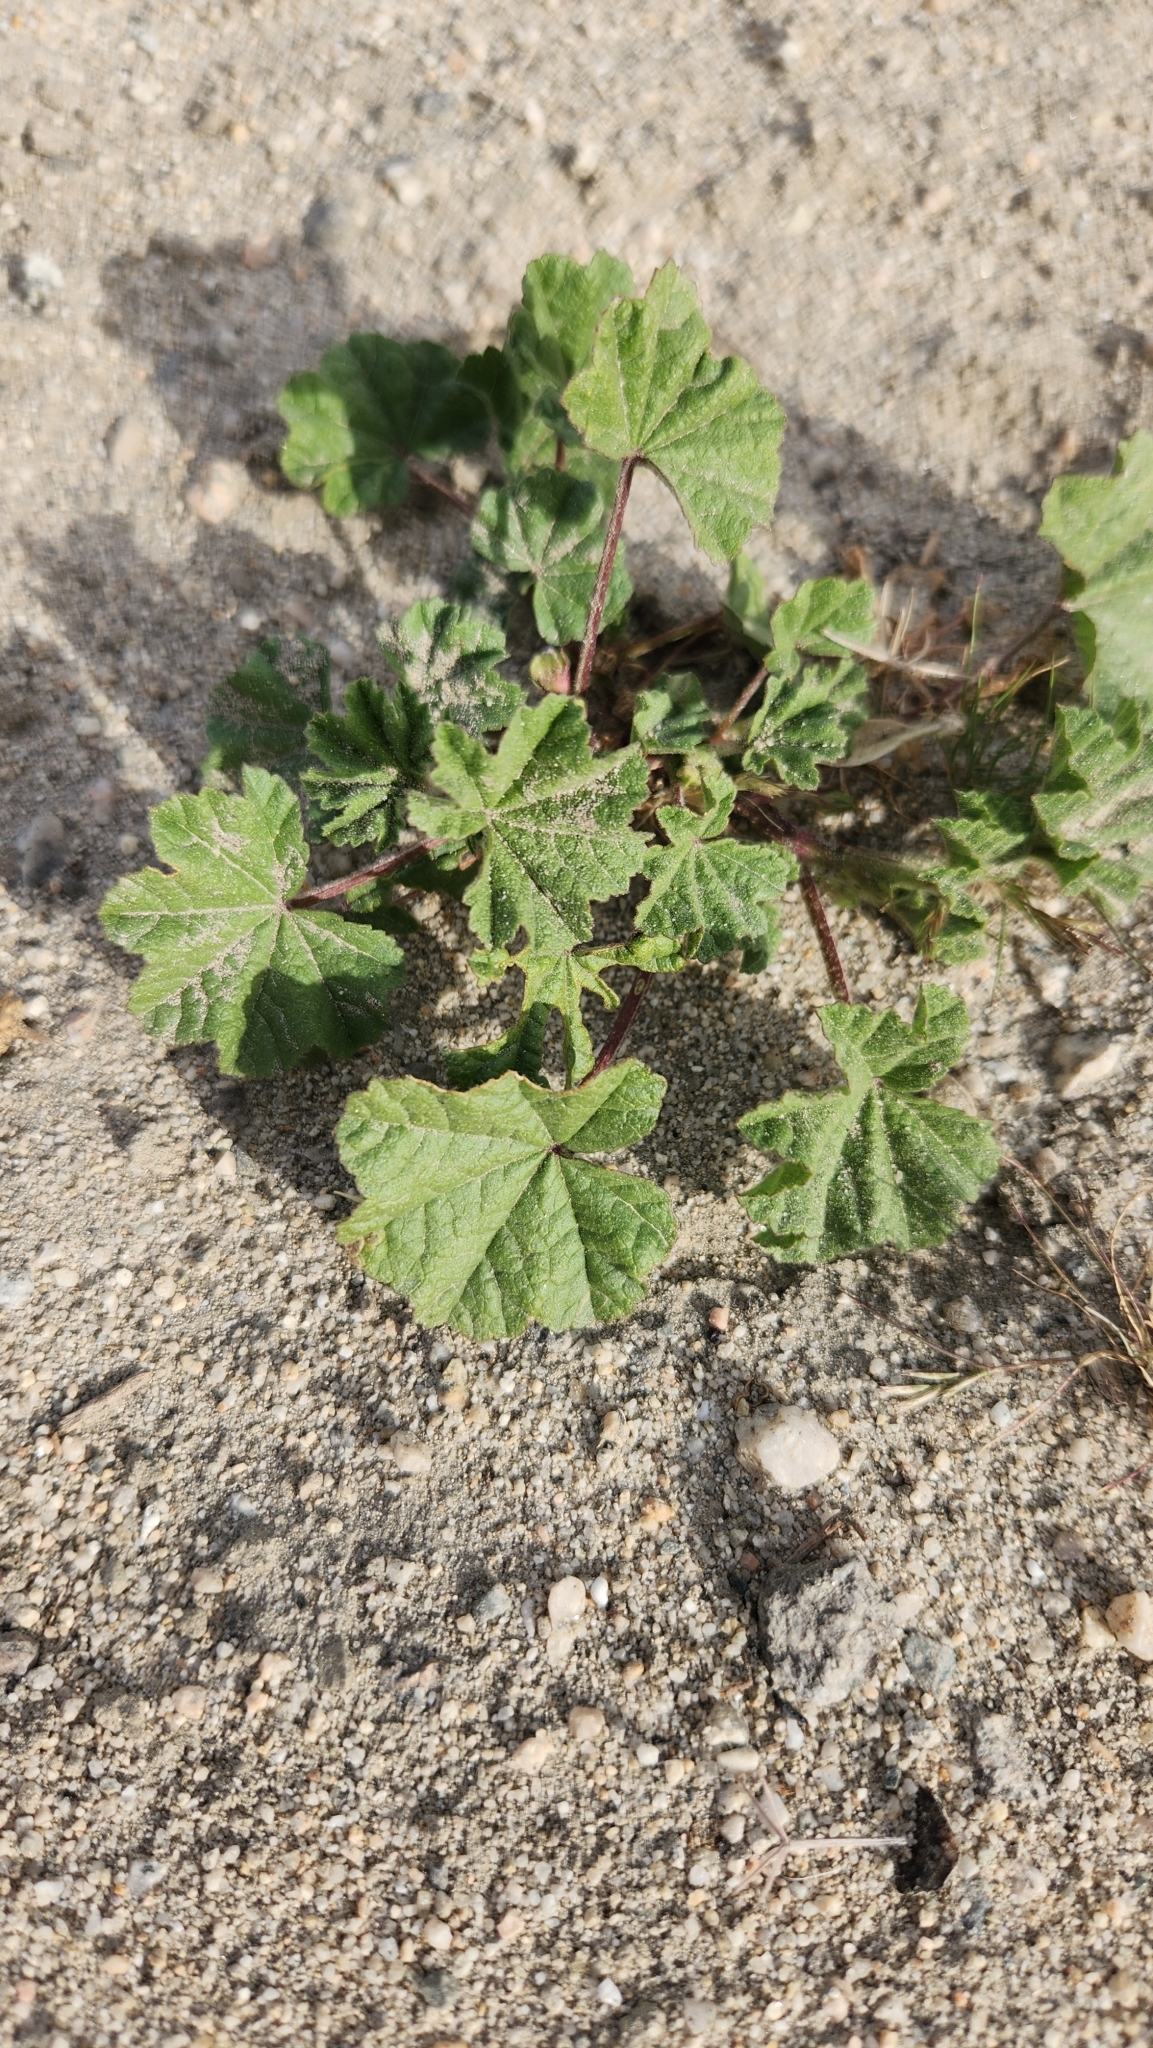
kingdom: Plantae
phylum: Tracheophyta
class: Magnoliopsida
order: Malvales
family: Malvaceae
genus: Malva
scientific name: Malva parviflora
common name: Least mallow
